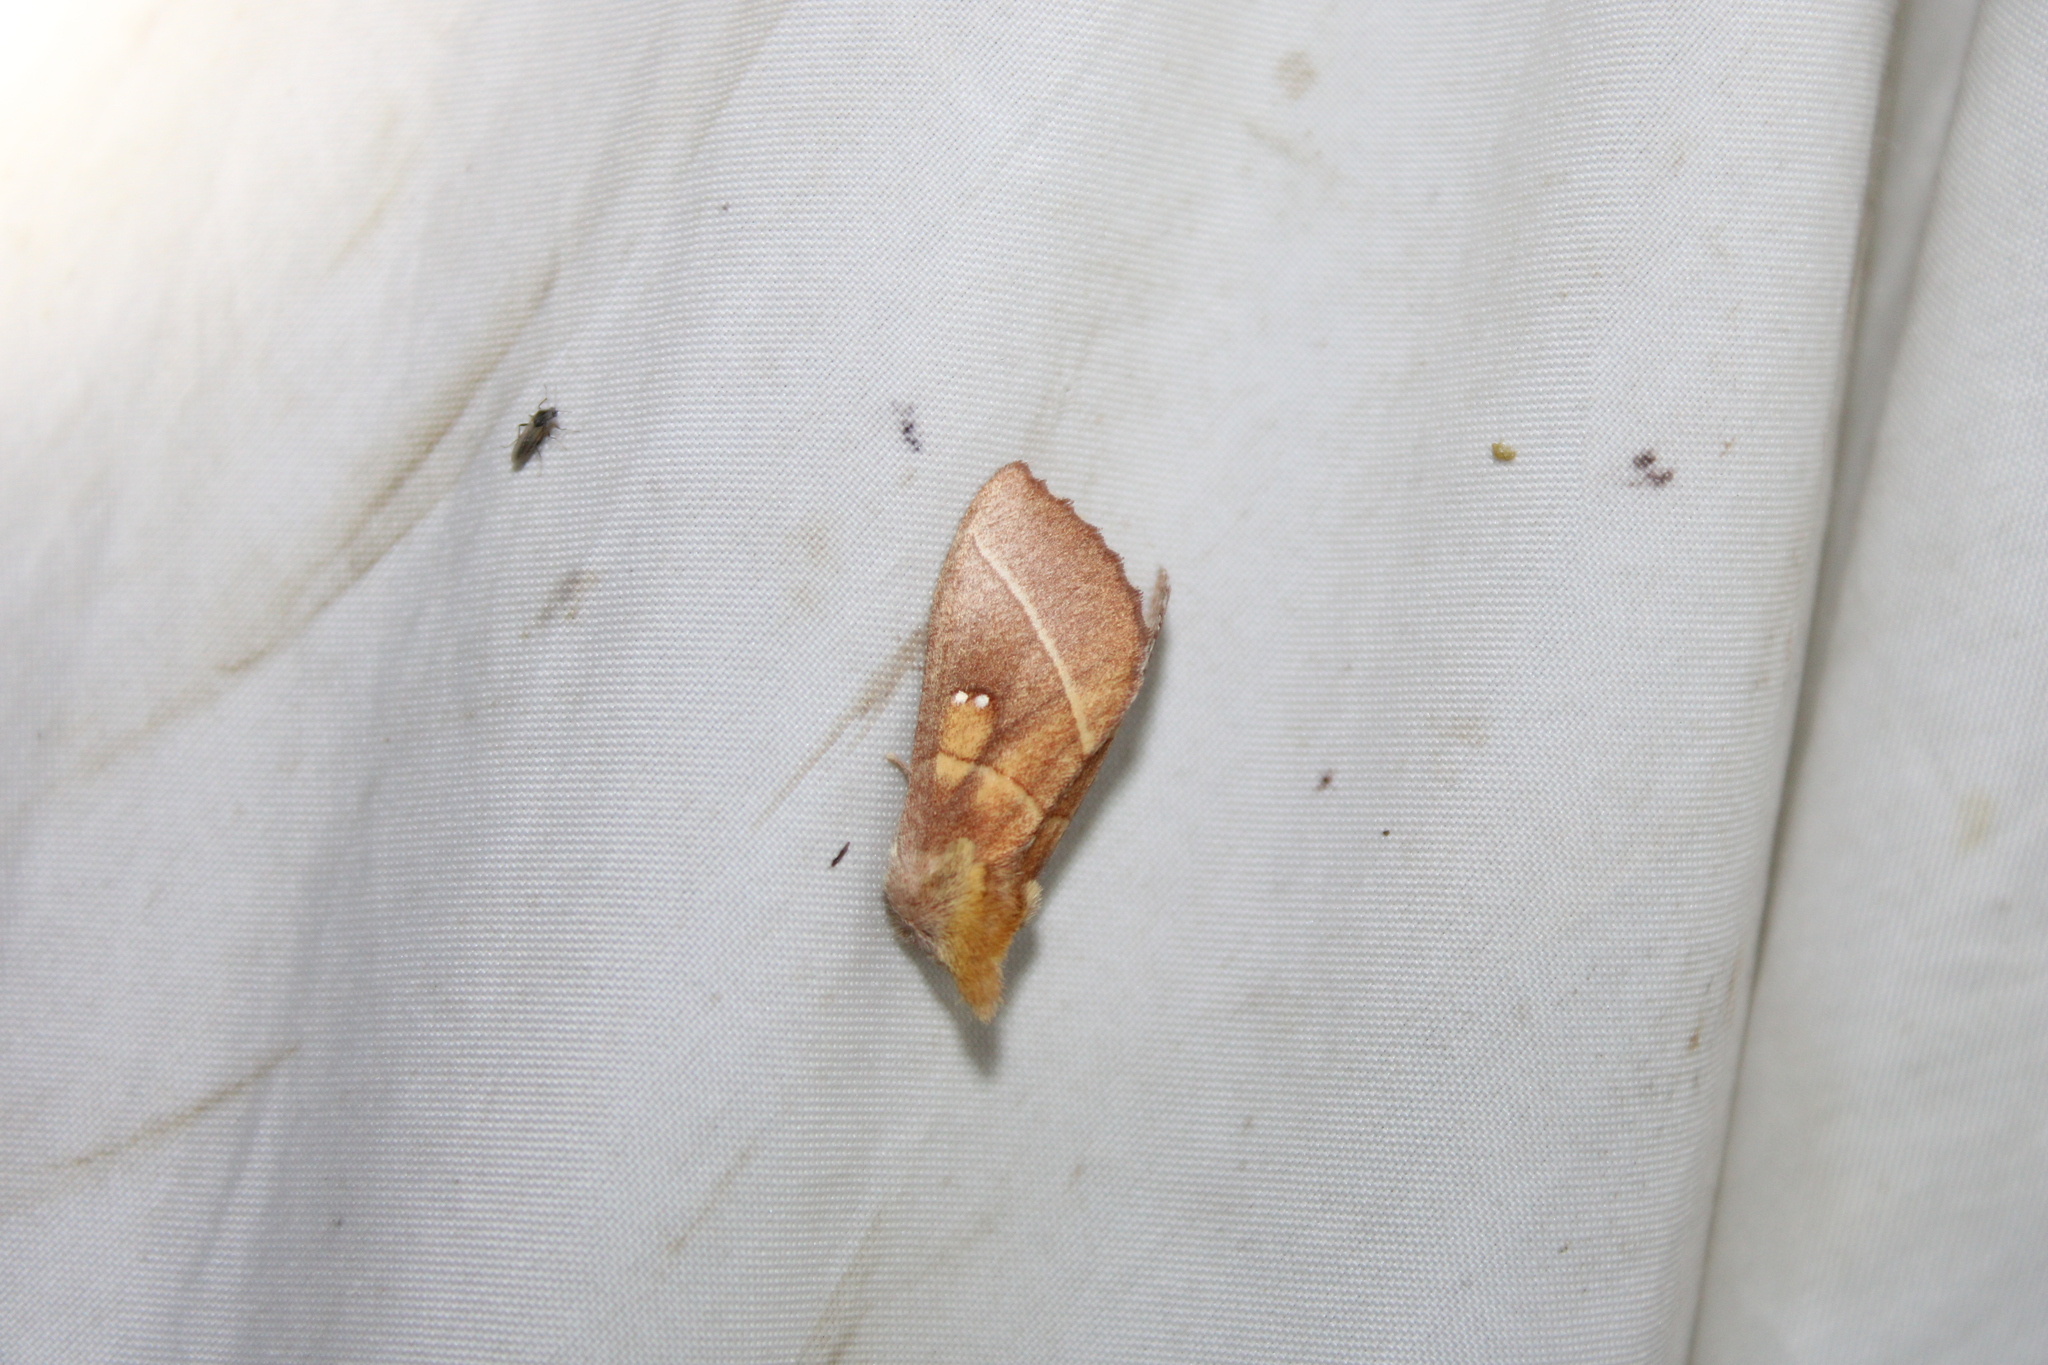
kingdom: Animalia
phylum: Arthropoda
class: Insecta
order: Lepidoptera
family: Notodontidae
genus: Nadata
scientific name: Nadata gibbosa
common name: White-dotted prominent
